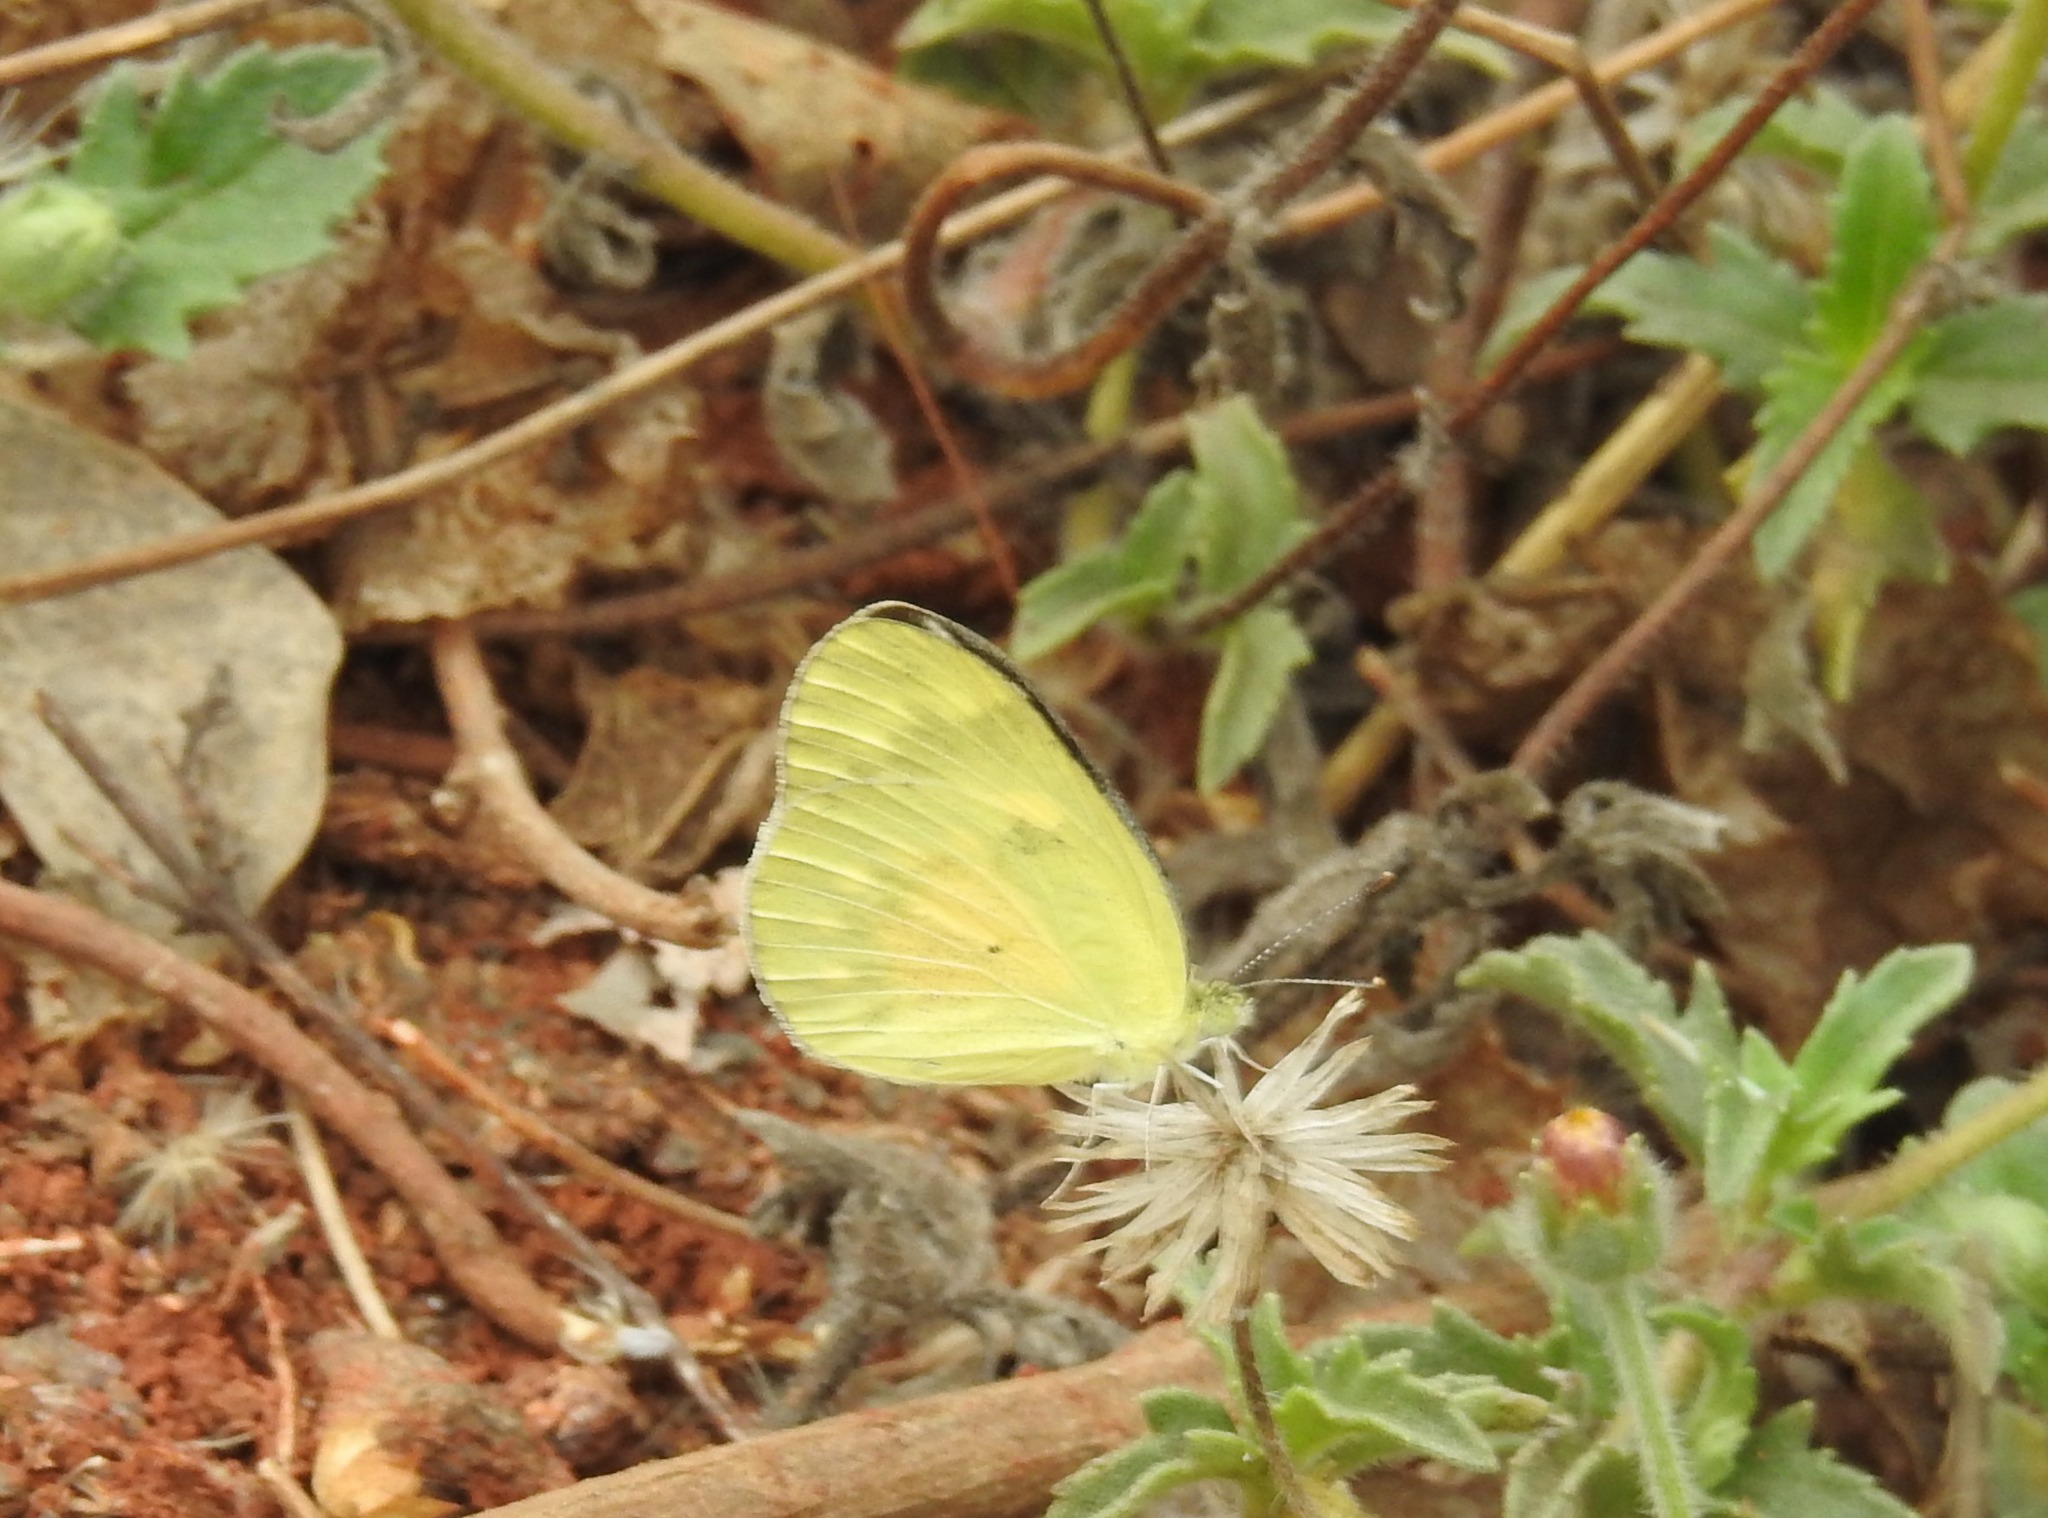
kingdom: Animalia
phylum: Arthropoda
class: Insecta
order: Lepidoptera
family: Pieridae
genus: Colotis
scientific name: Colotis amata
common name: Small salmon arab
